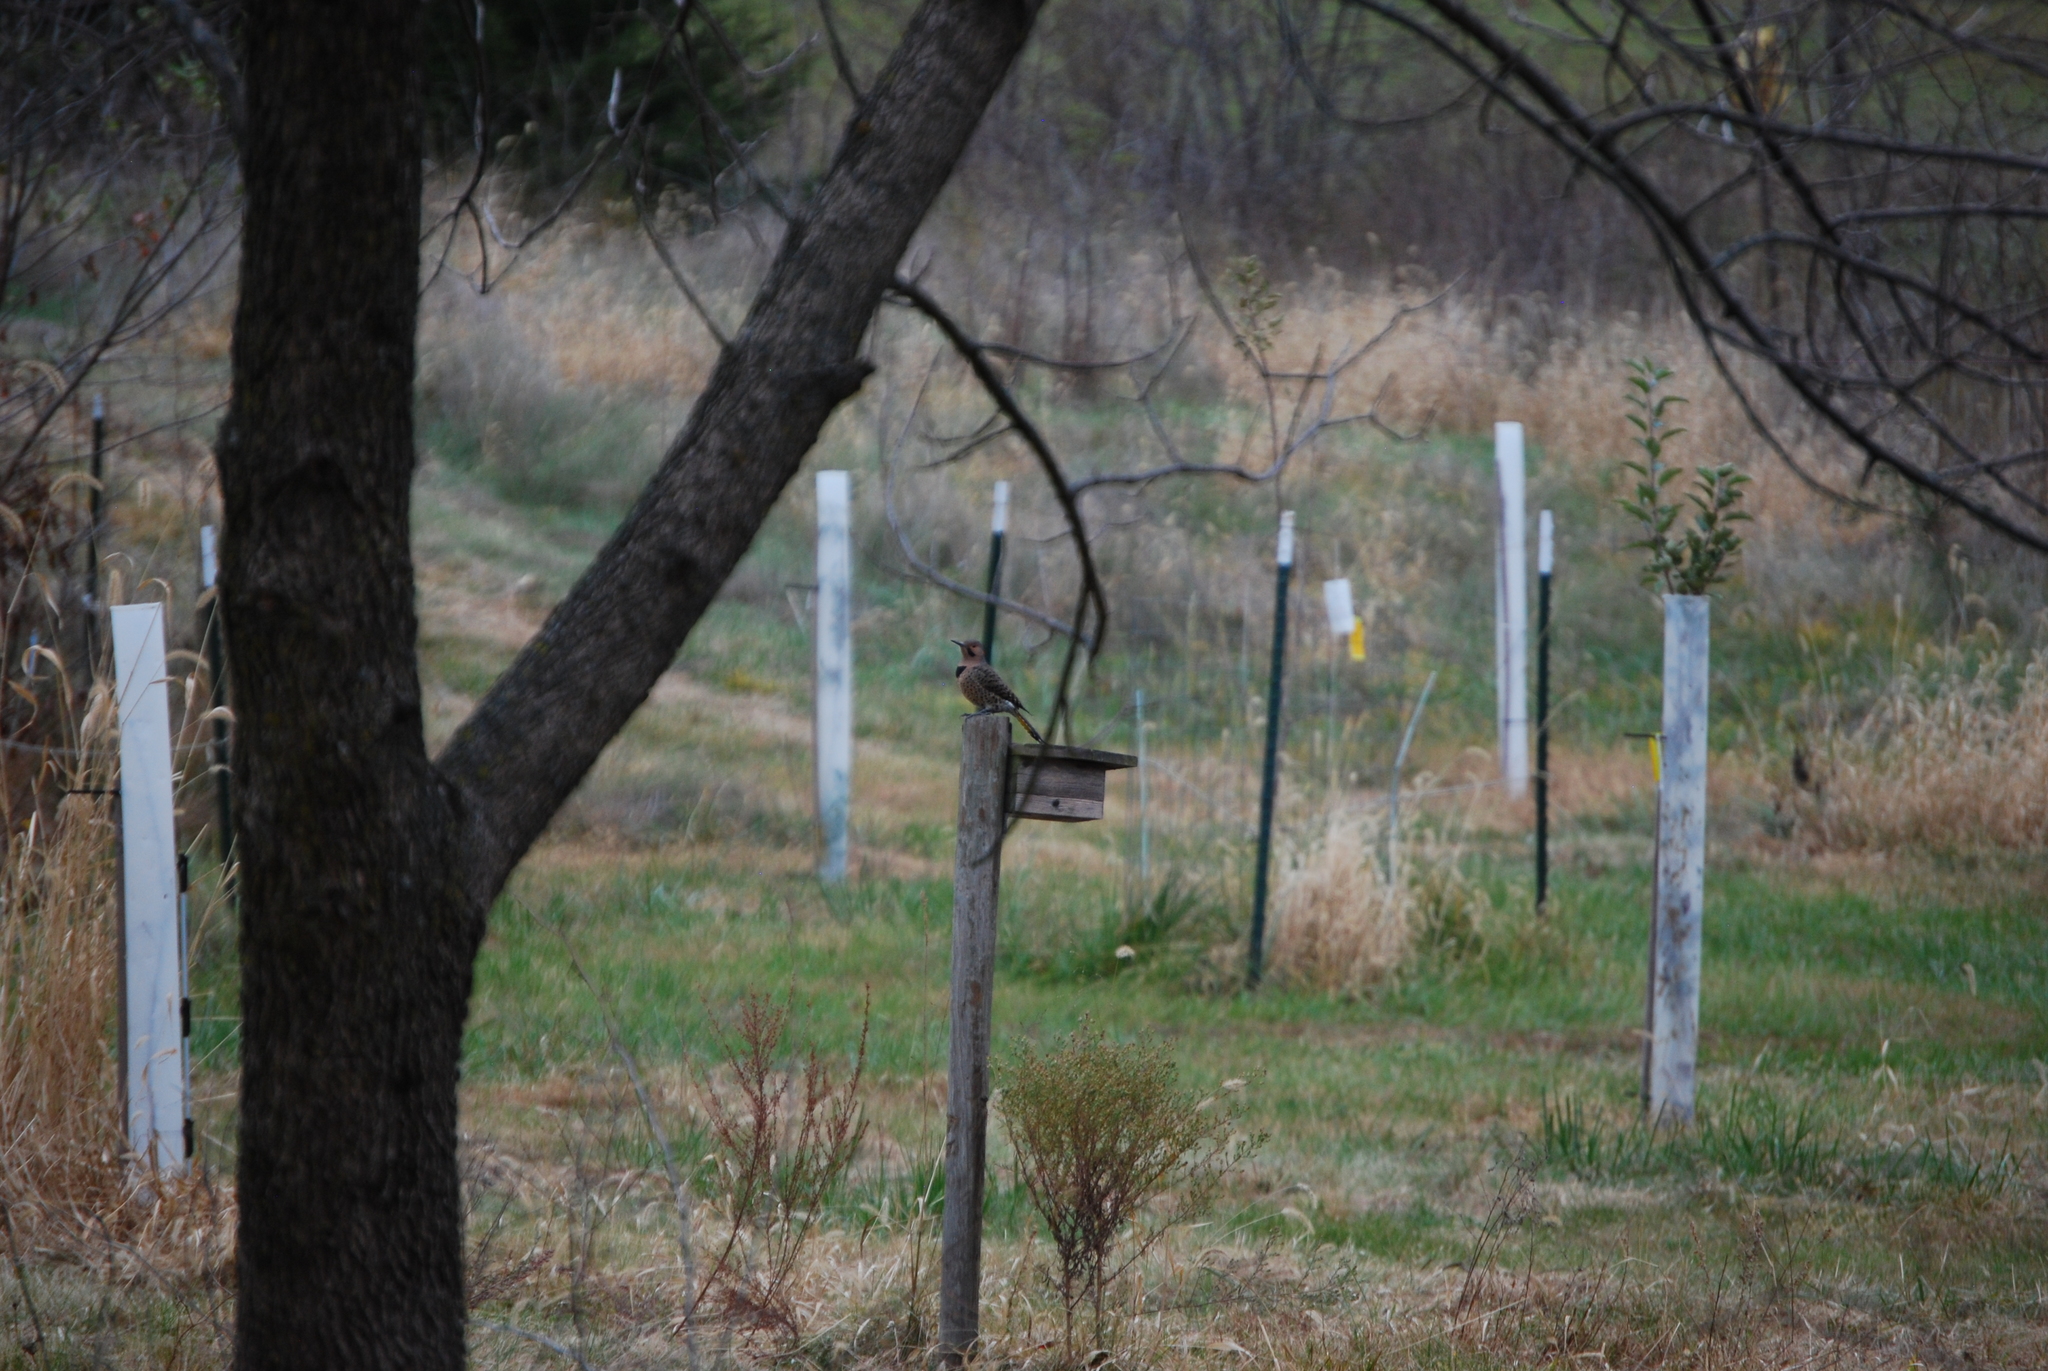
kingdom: Animalia
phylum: Chordata
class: Aves
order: Piciformes
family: Picidae
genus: Colaptes
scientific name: Colaptes auratus
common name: Northern flicker
